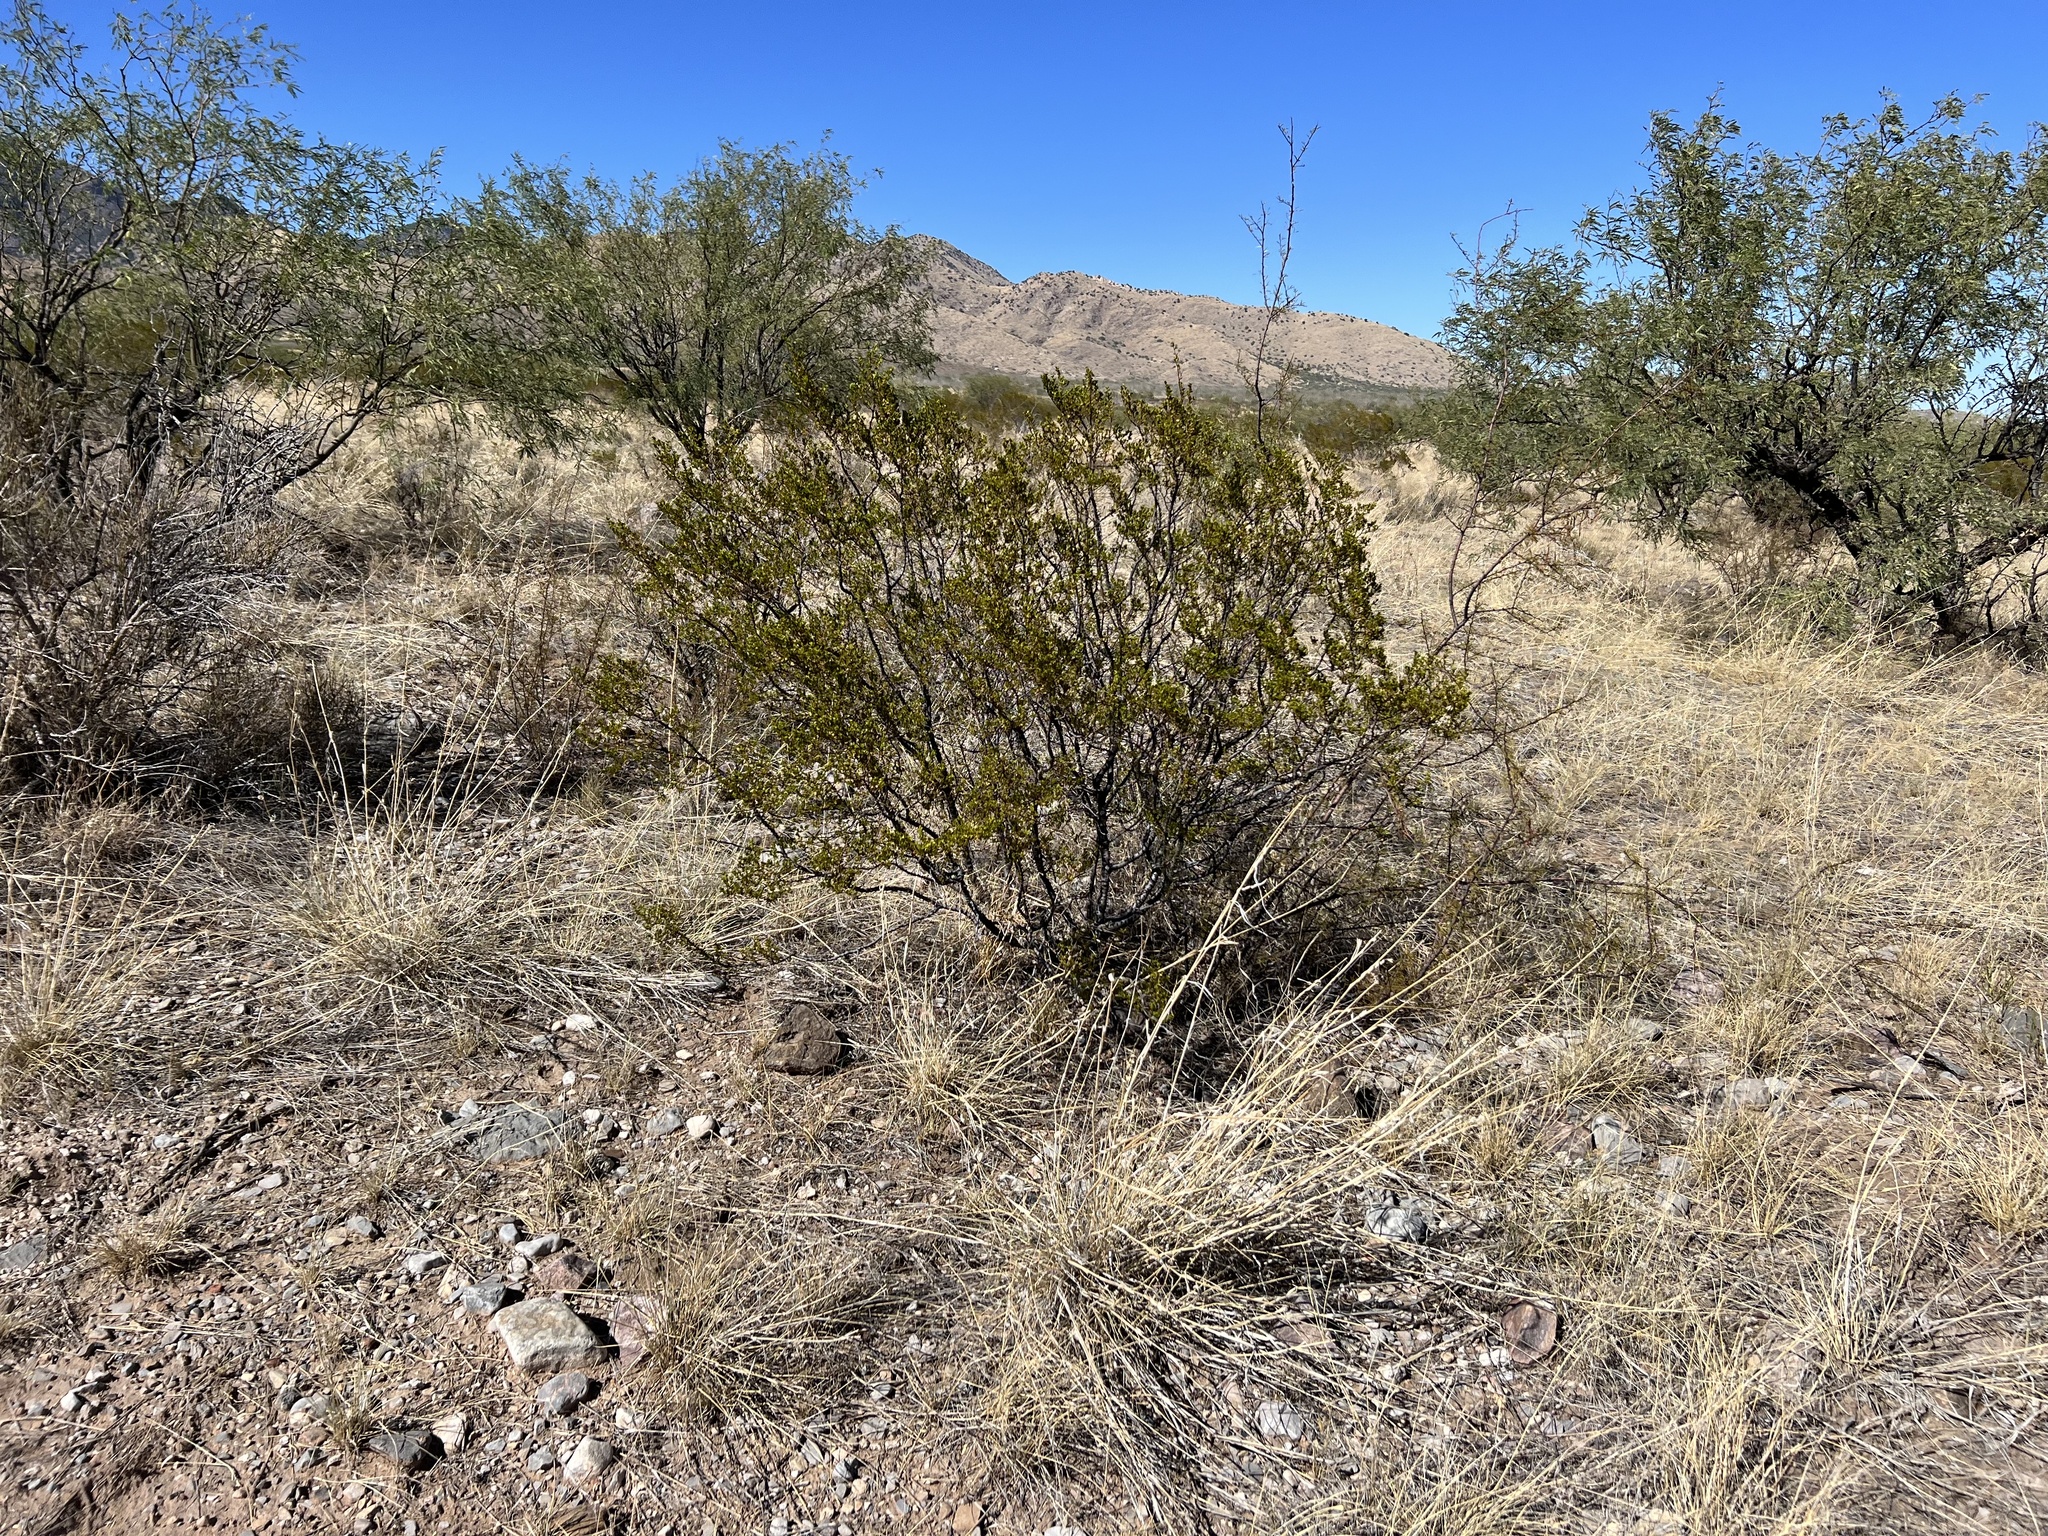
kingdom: Plantae
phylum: Tracheophyta
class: Magnoliopsida
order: Zygophyllales
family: Zygophyllaceae
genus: Larrea
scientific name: Larrea tridentata
